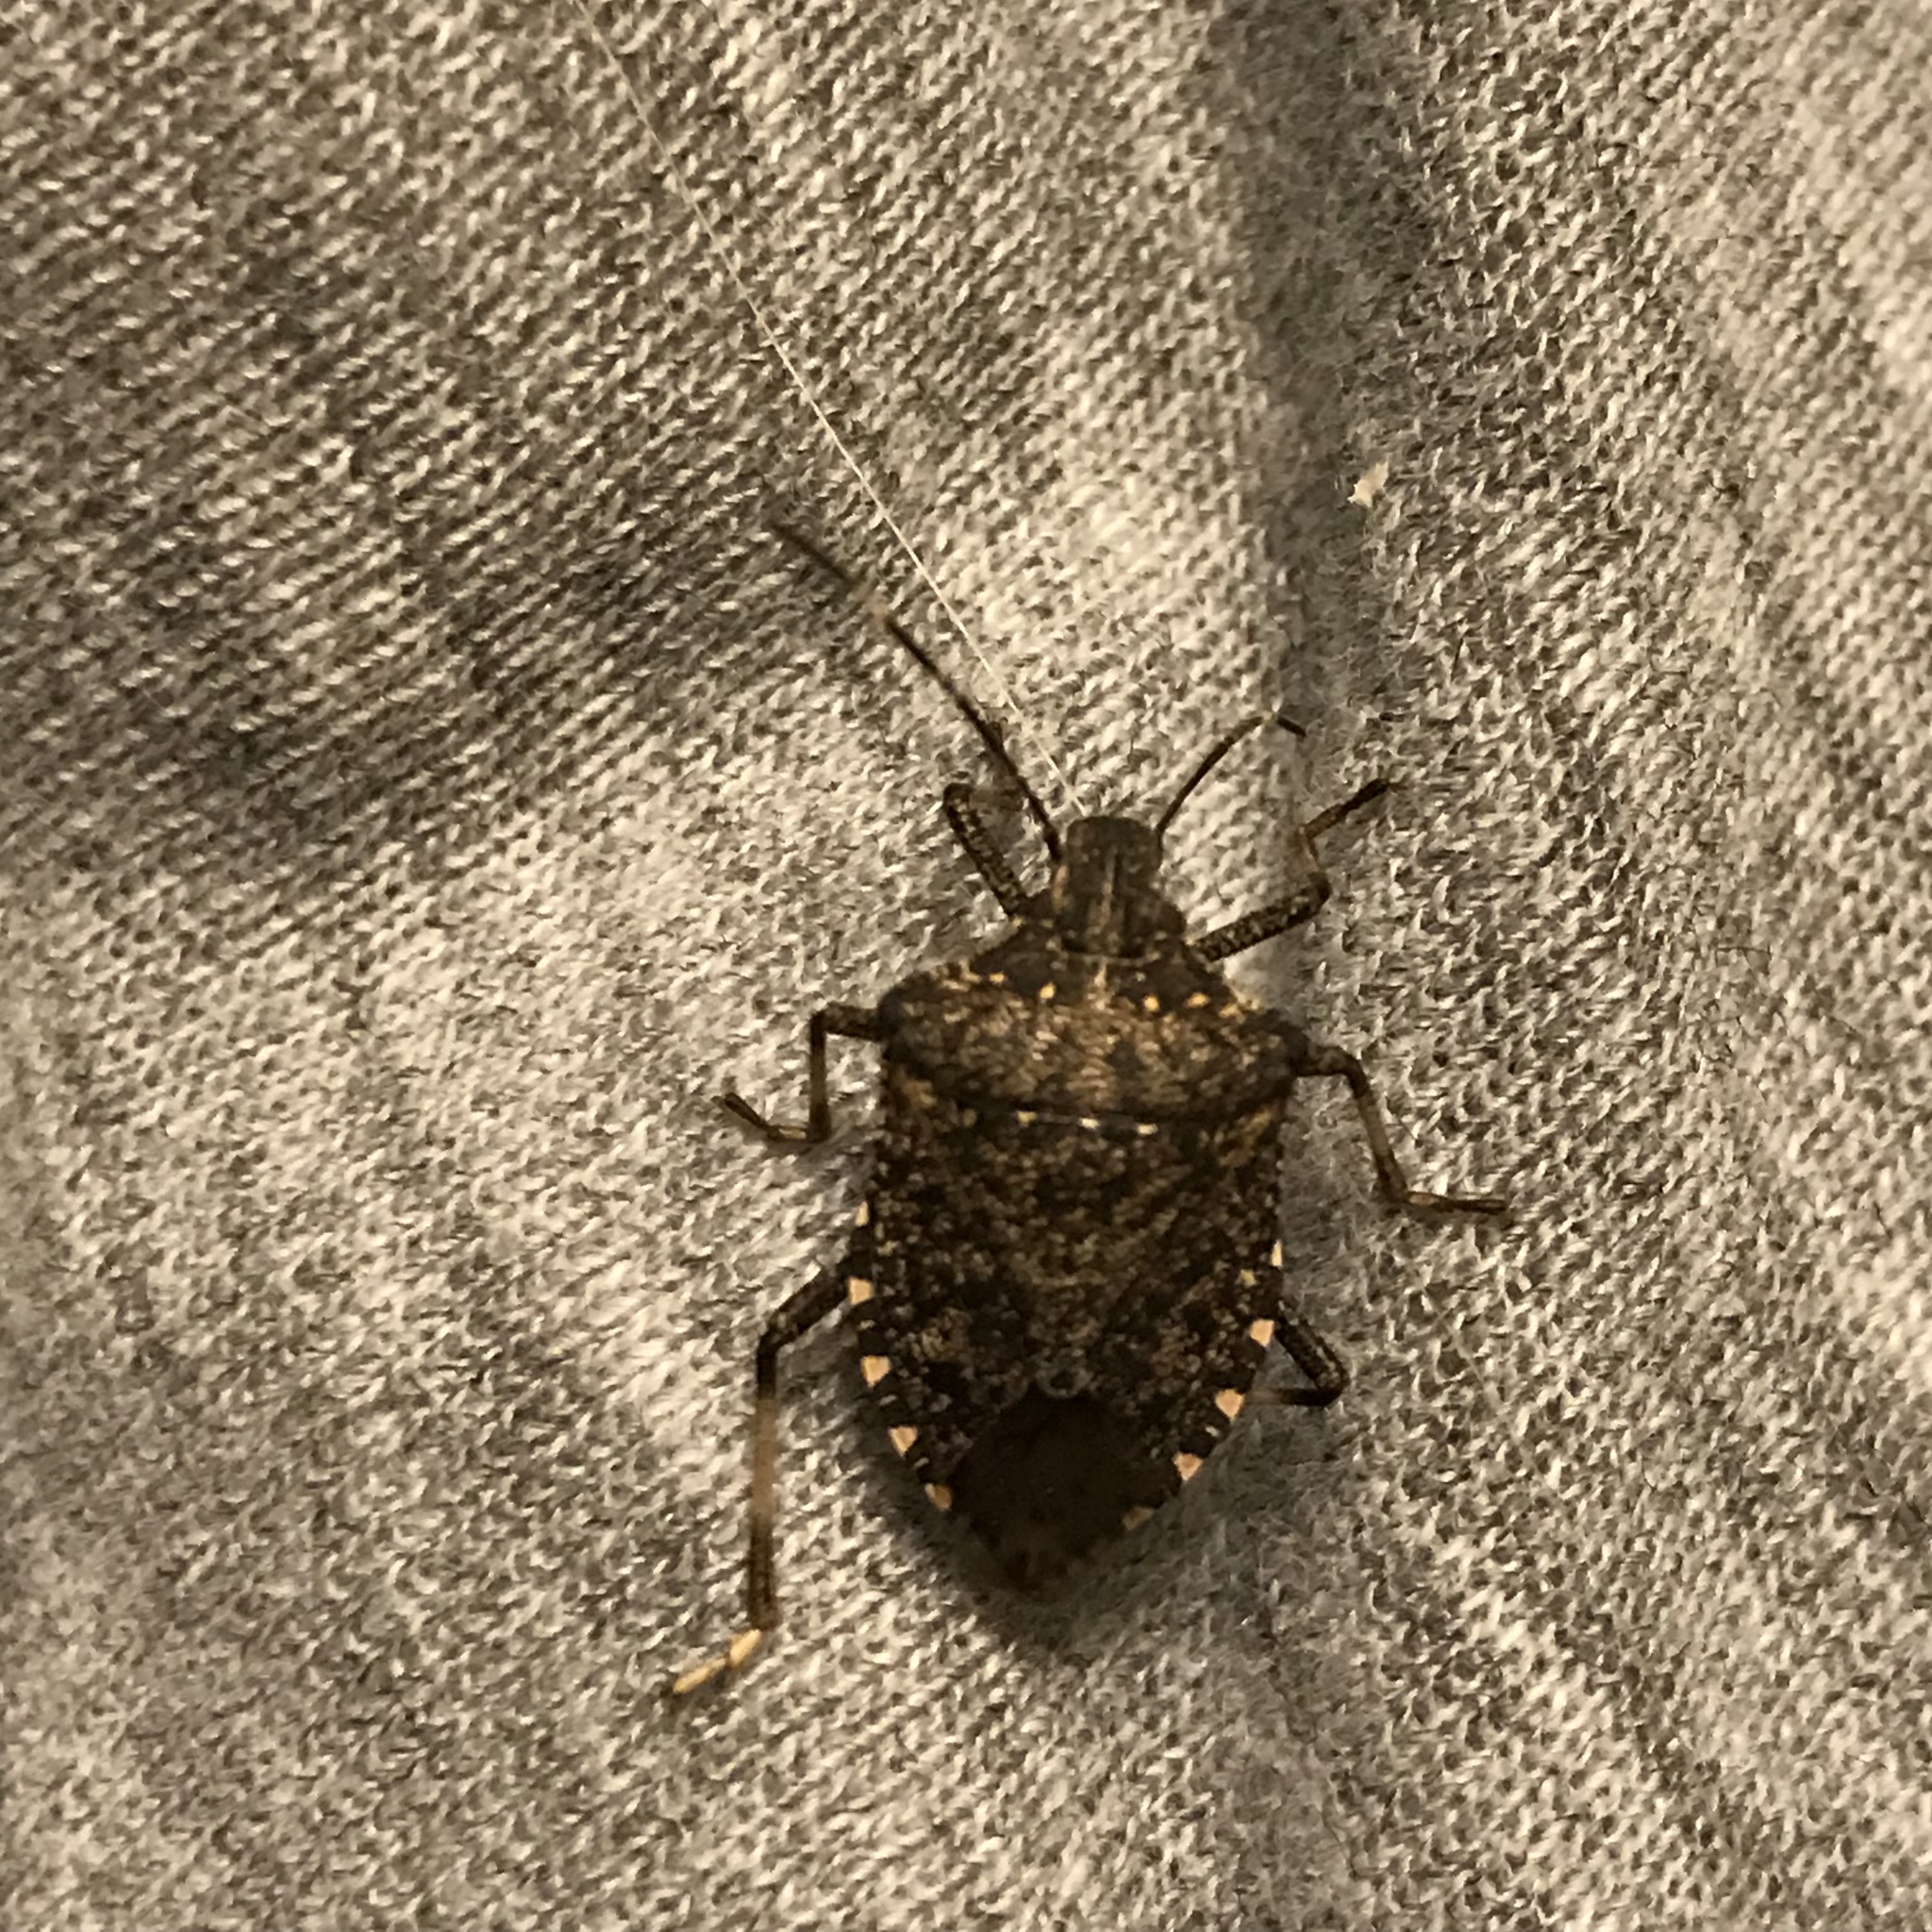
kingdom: Animalia
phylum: Arthropoda
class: Insecta
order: Hemiptera
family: Pentatomidae
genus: Halyomorpha
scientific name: Halyomorpha halys
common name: Brown marmorated stink bug
